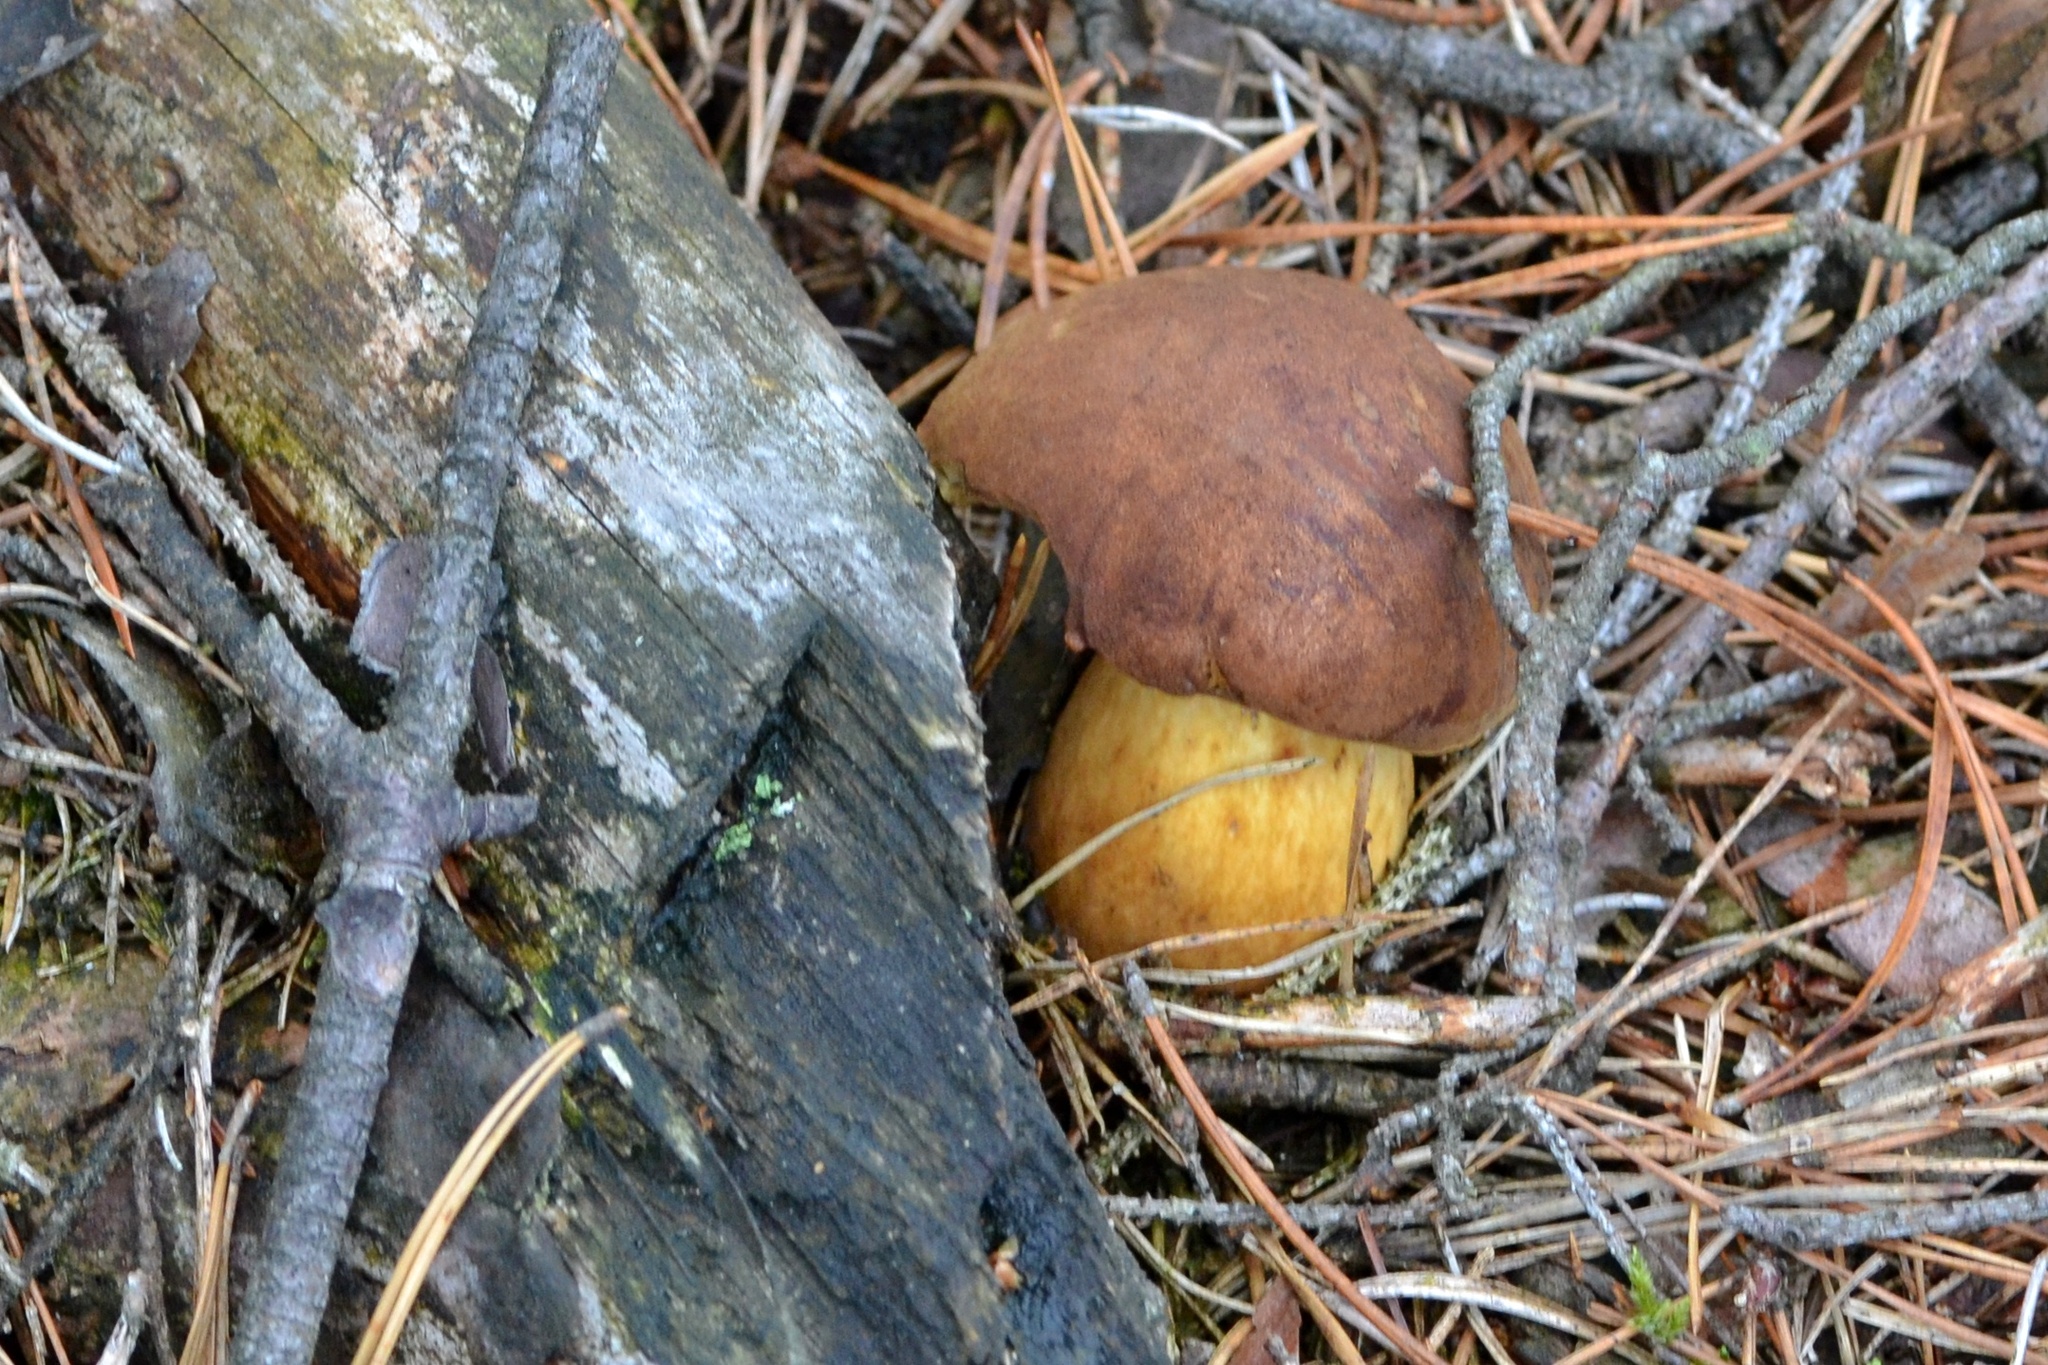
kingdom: Fungi
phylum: Basidiomycota
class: Agaricomycetes
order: Boletales
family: Boletaceae
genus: Imleria
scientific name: Imleria badia
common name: Bay bolete
